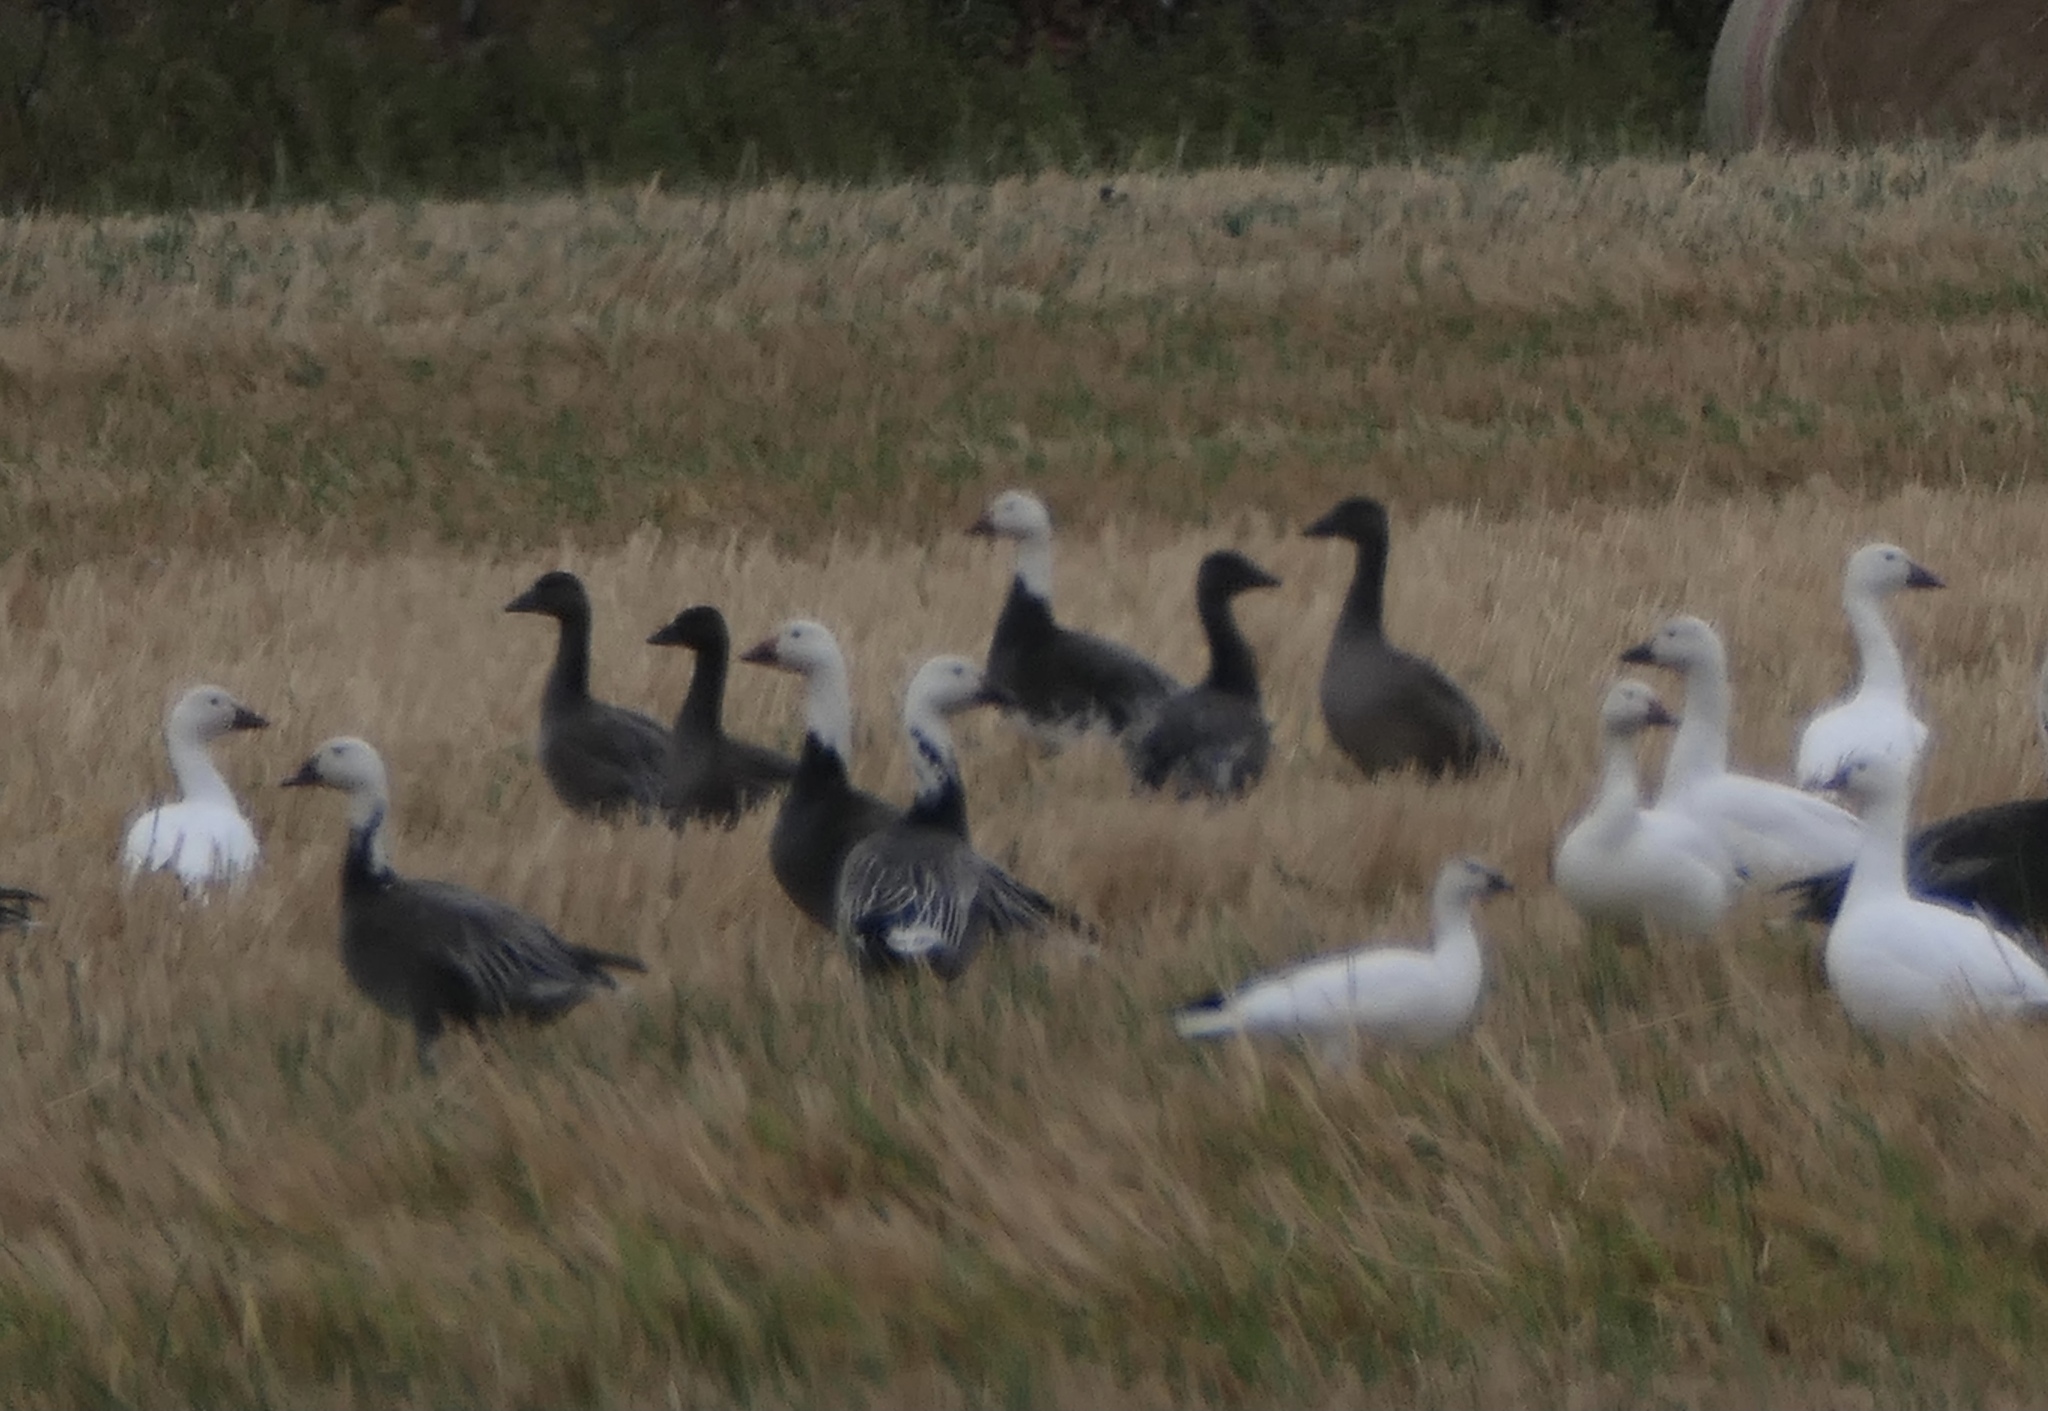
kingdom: Animalia
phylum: Chordata
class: Aves
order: Anseriformes
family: Anatidae
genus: Anser
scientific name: Anser caerulescens
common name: Snow goose
